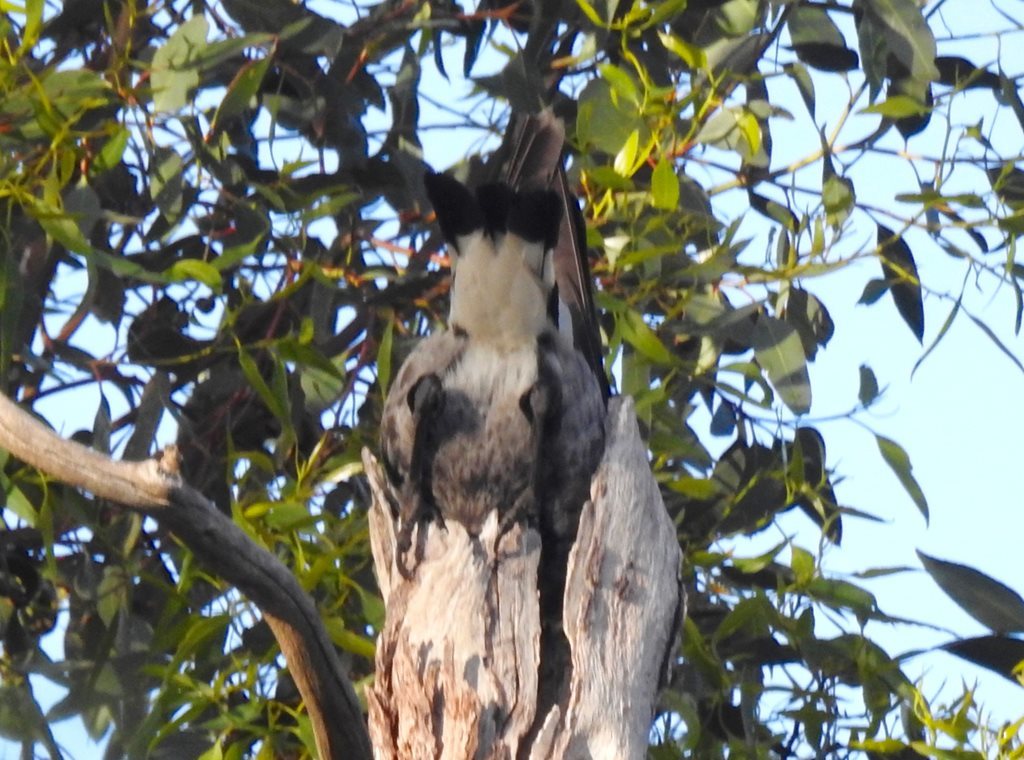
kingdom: Animalia
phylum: Chordata
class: Aves
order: Passeriformes
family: Cracticidae
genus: Gymnorhina
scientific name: Gymnorhina tibicen
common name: Australian magpie
